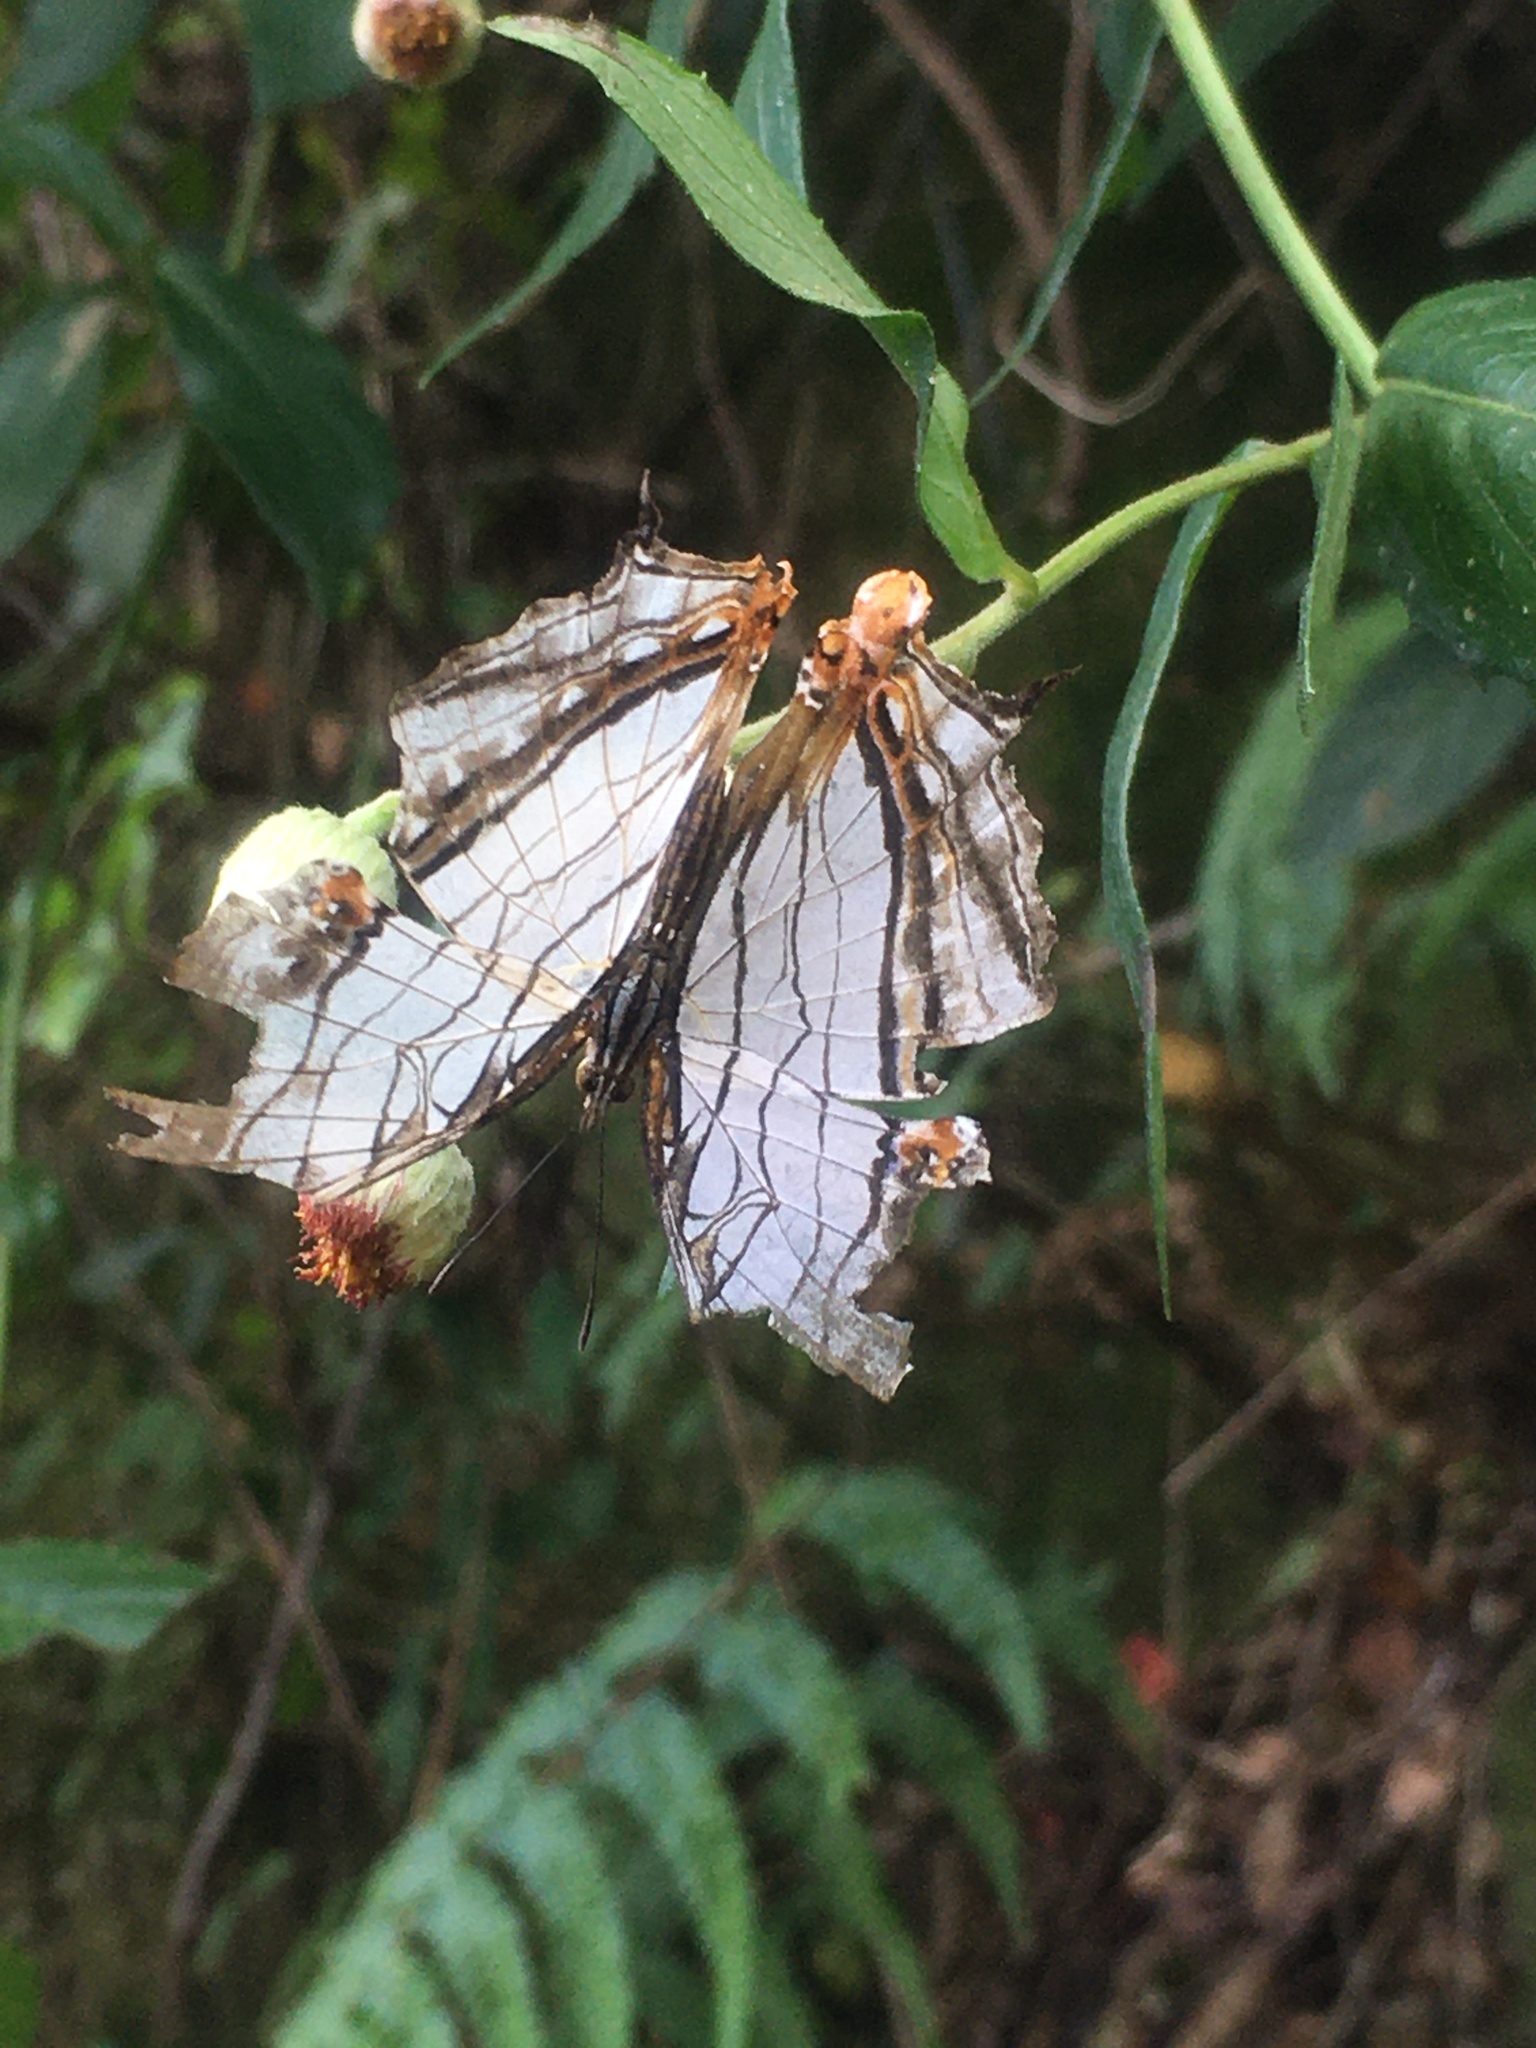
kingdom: Animalia
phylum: Arthropoda
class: Insecta
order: Lepidoptera
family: Nymphalidae
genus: Cyrestis
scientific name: Cyrestis thyodamas
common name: Common mapwing
